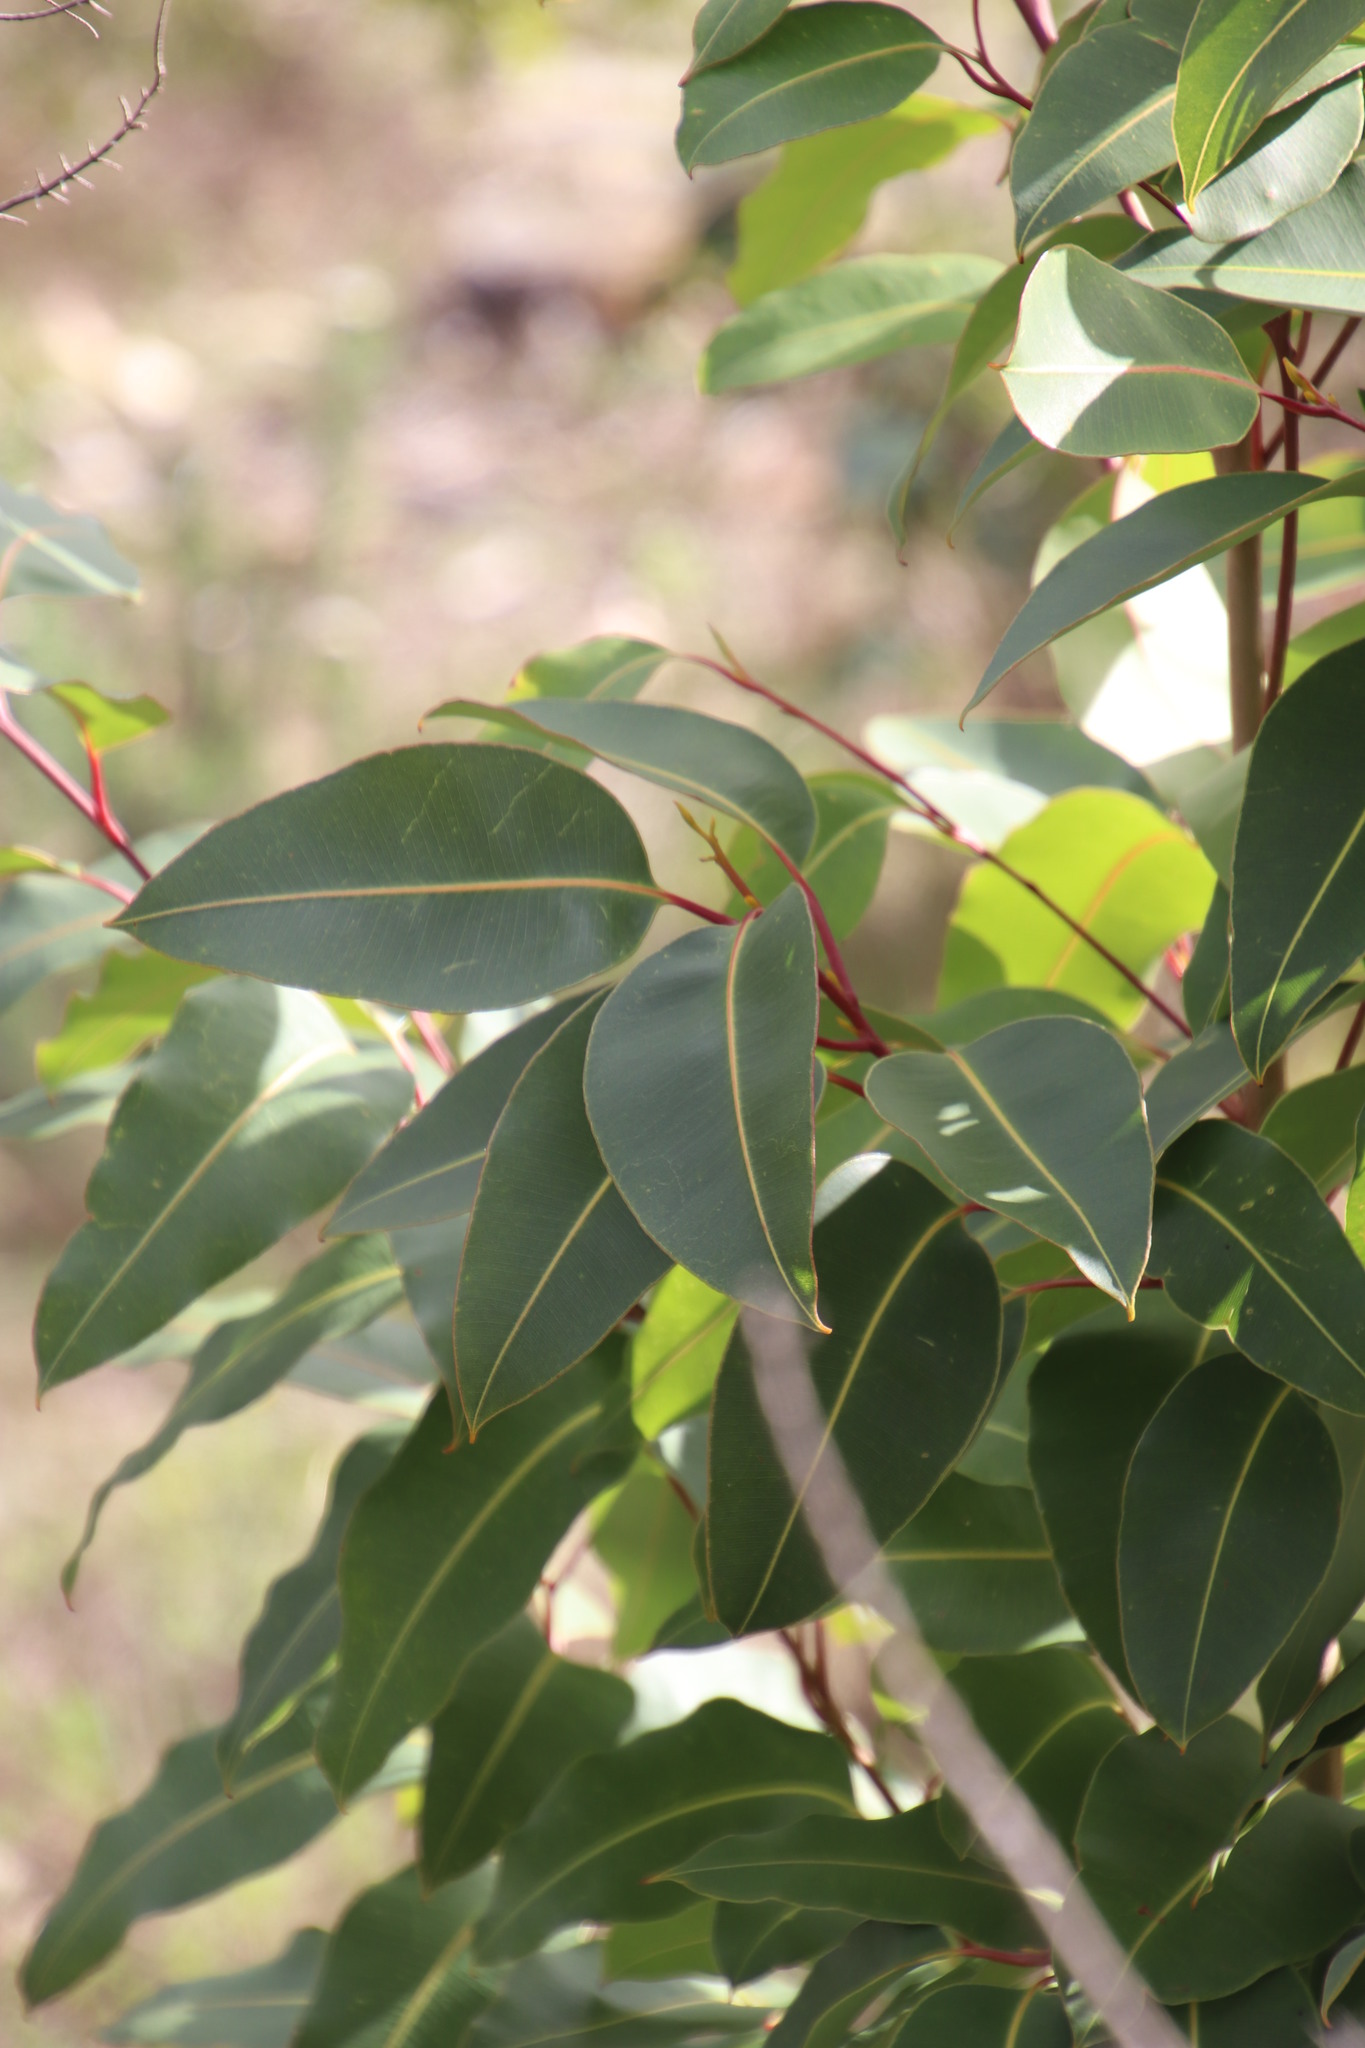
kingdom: Plantae
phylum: Tracheophyta
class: Magnoliopsida
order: Myrtales
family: Myrtaceae
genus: Corymbia
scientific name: Corymbia ficifolia
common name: Redflower gum
